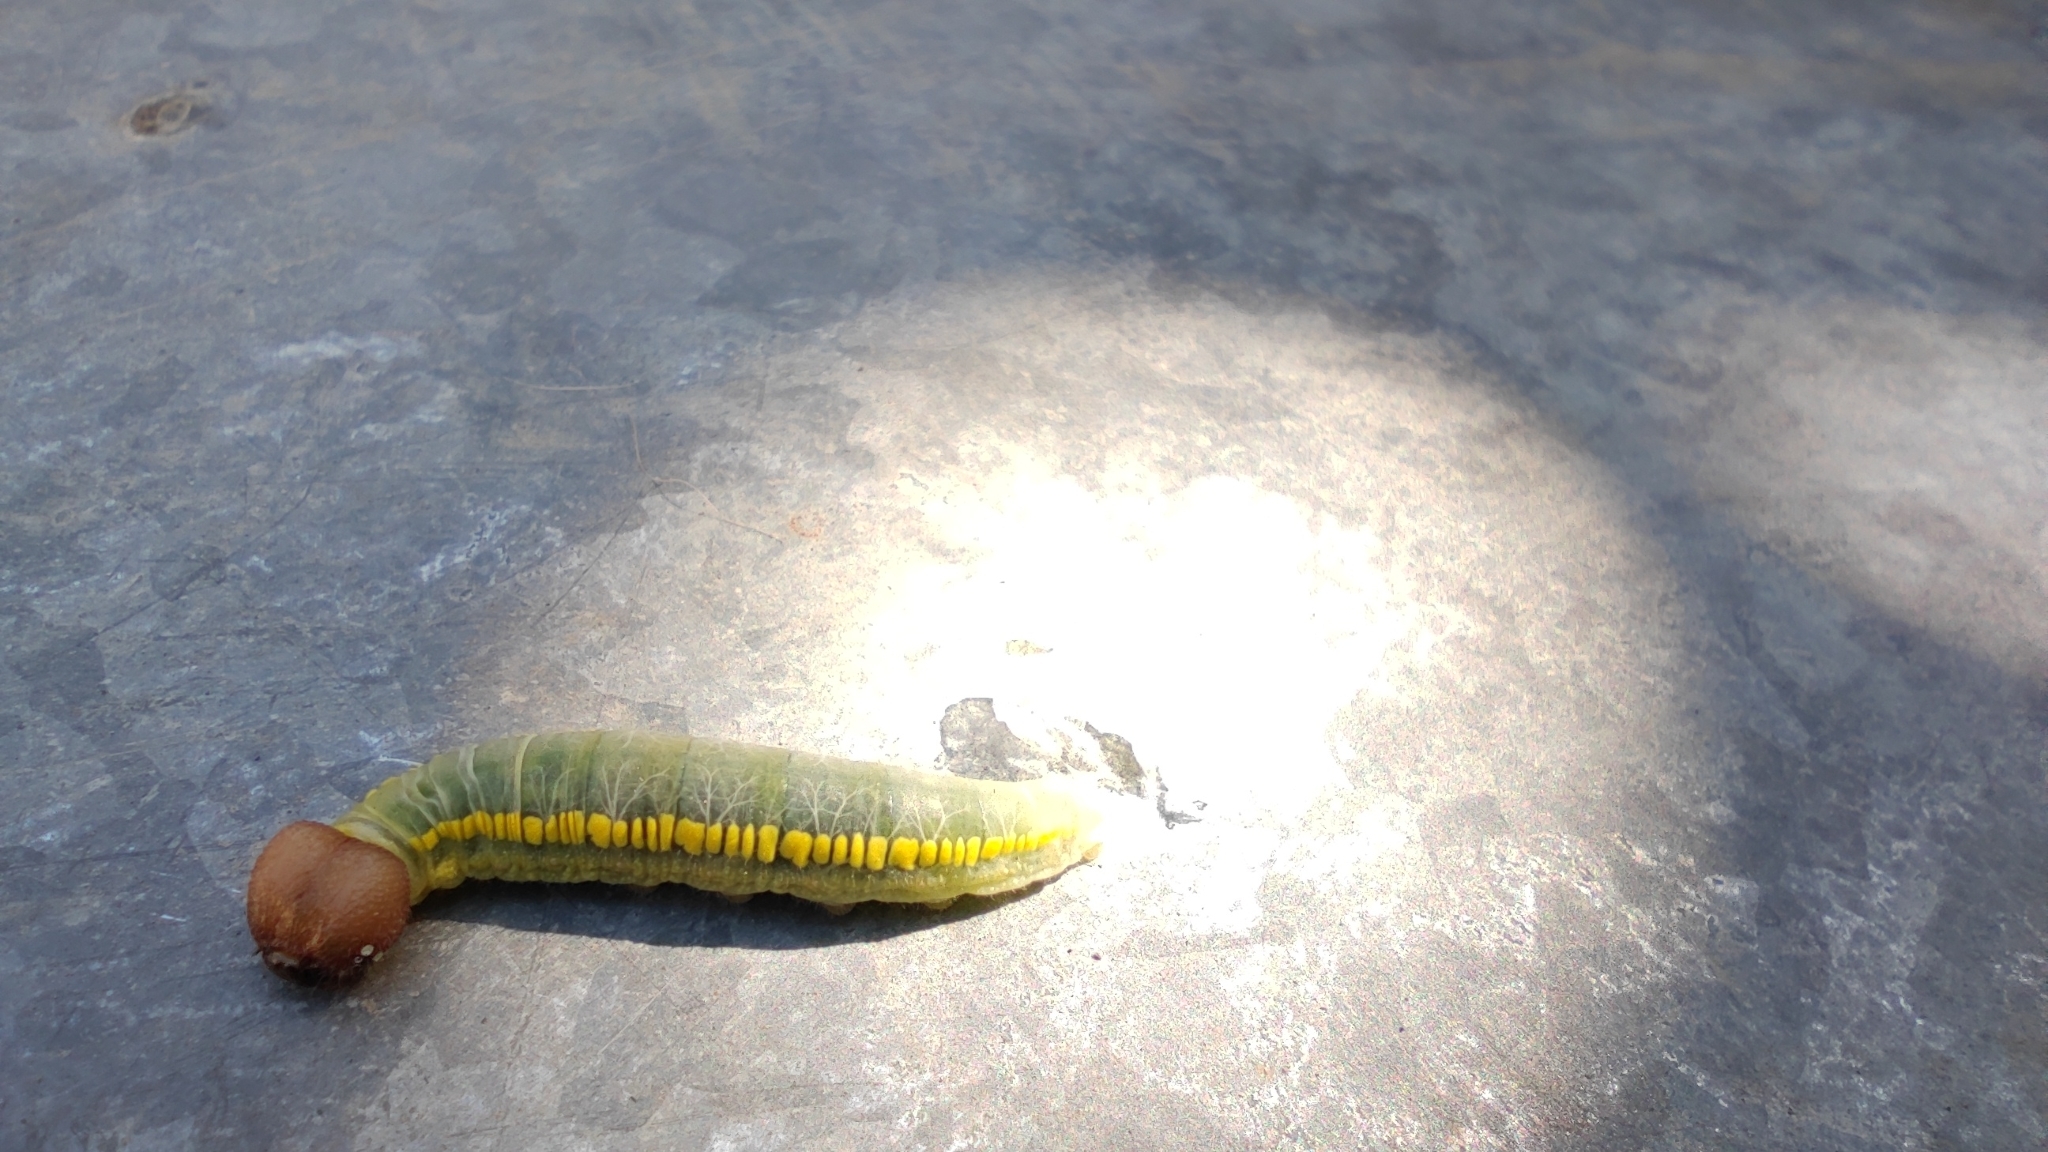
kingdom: Animalia
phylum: Arthropoda
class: Insecta
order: Lepidoptera
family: Hesperiidae
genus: Achlyodes
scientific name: Achlyodes pallida
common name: Pale sicklewing
